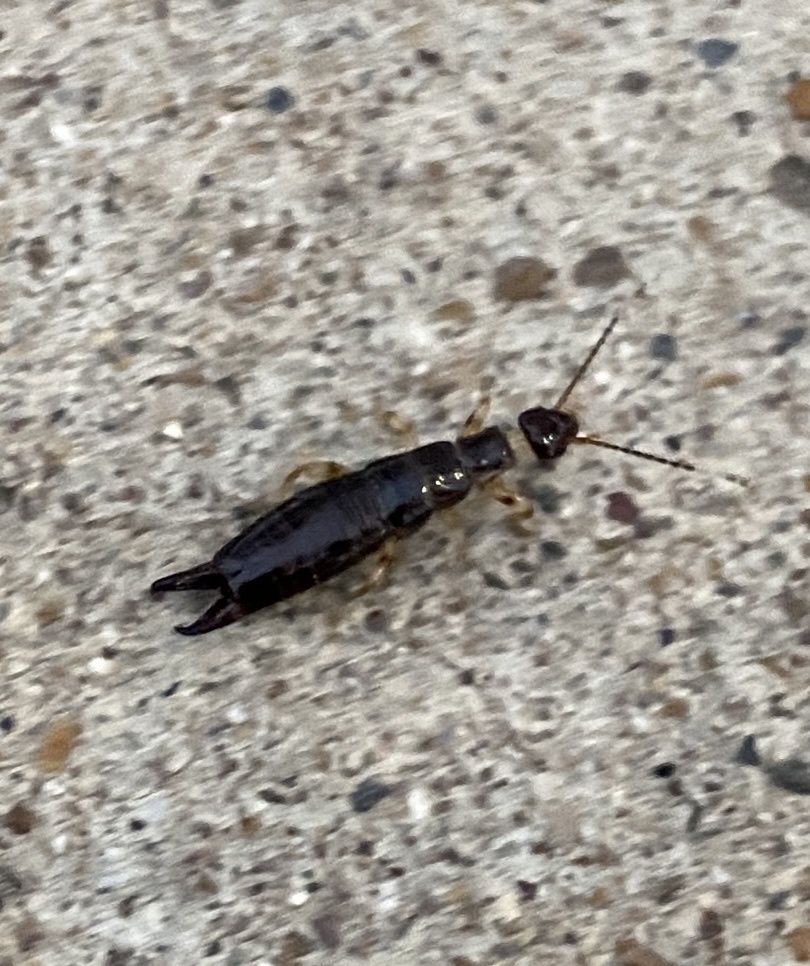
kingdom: Animalia
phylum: Arthropoda
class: Insecta
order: Dermaptera
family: Anisolabididae
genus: Euborellia
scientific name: Euborellia annulipes
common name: Ringlegged earwig
